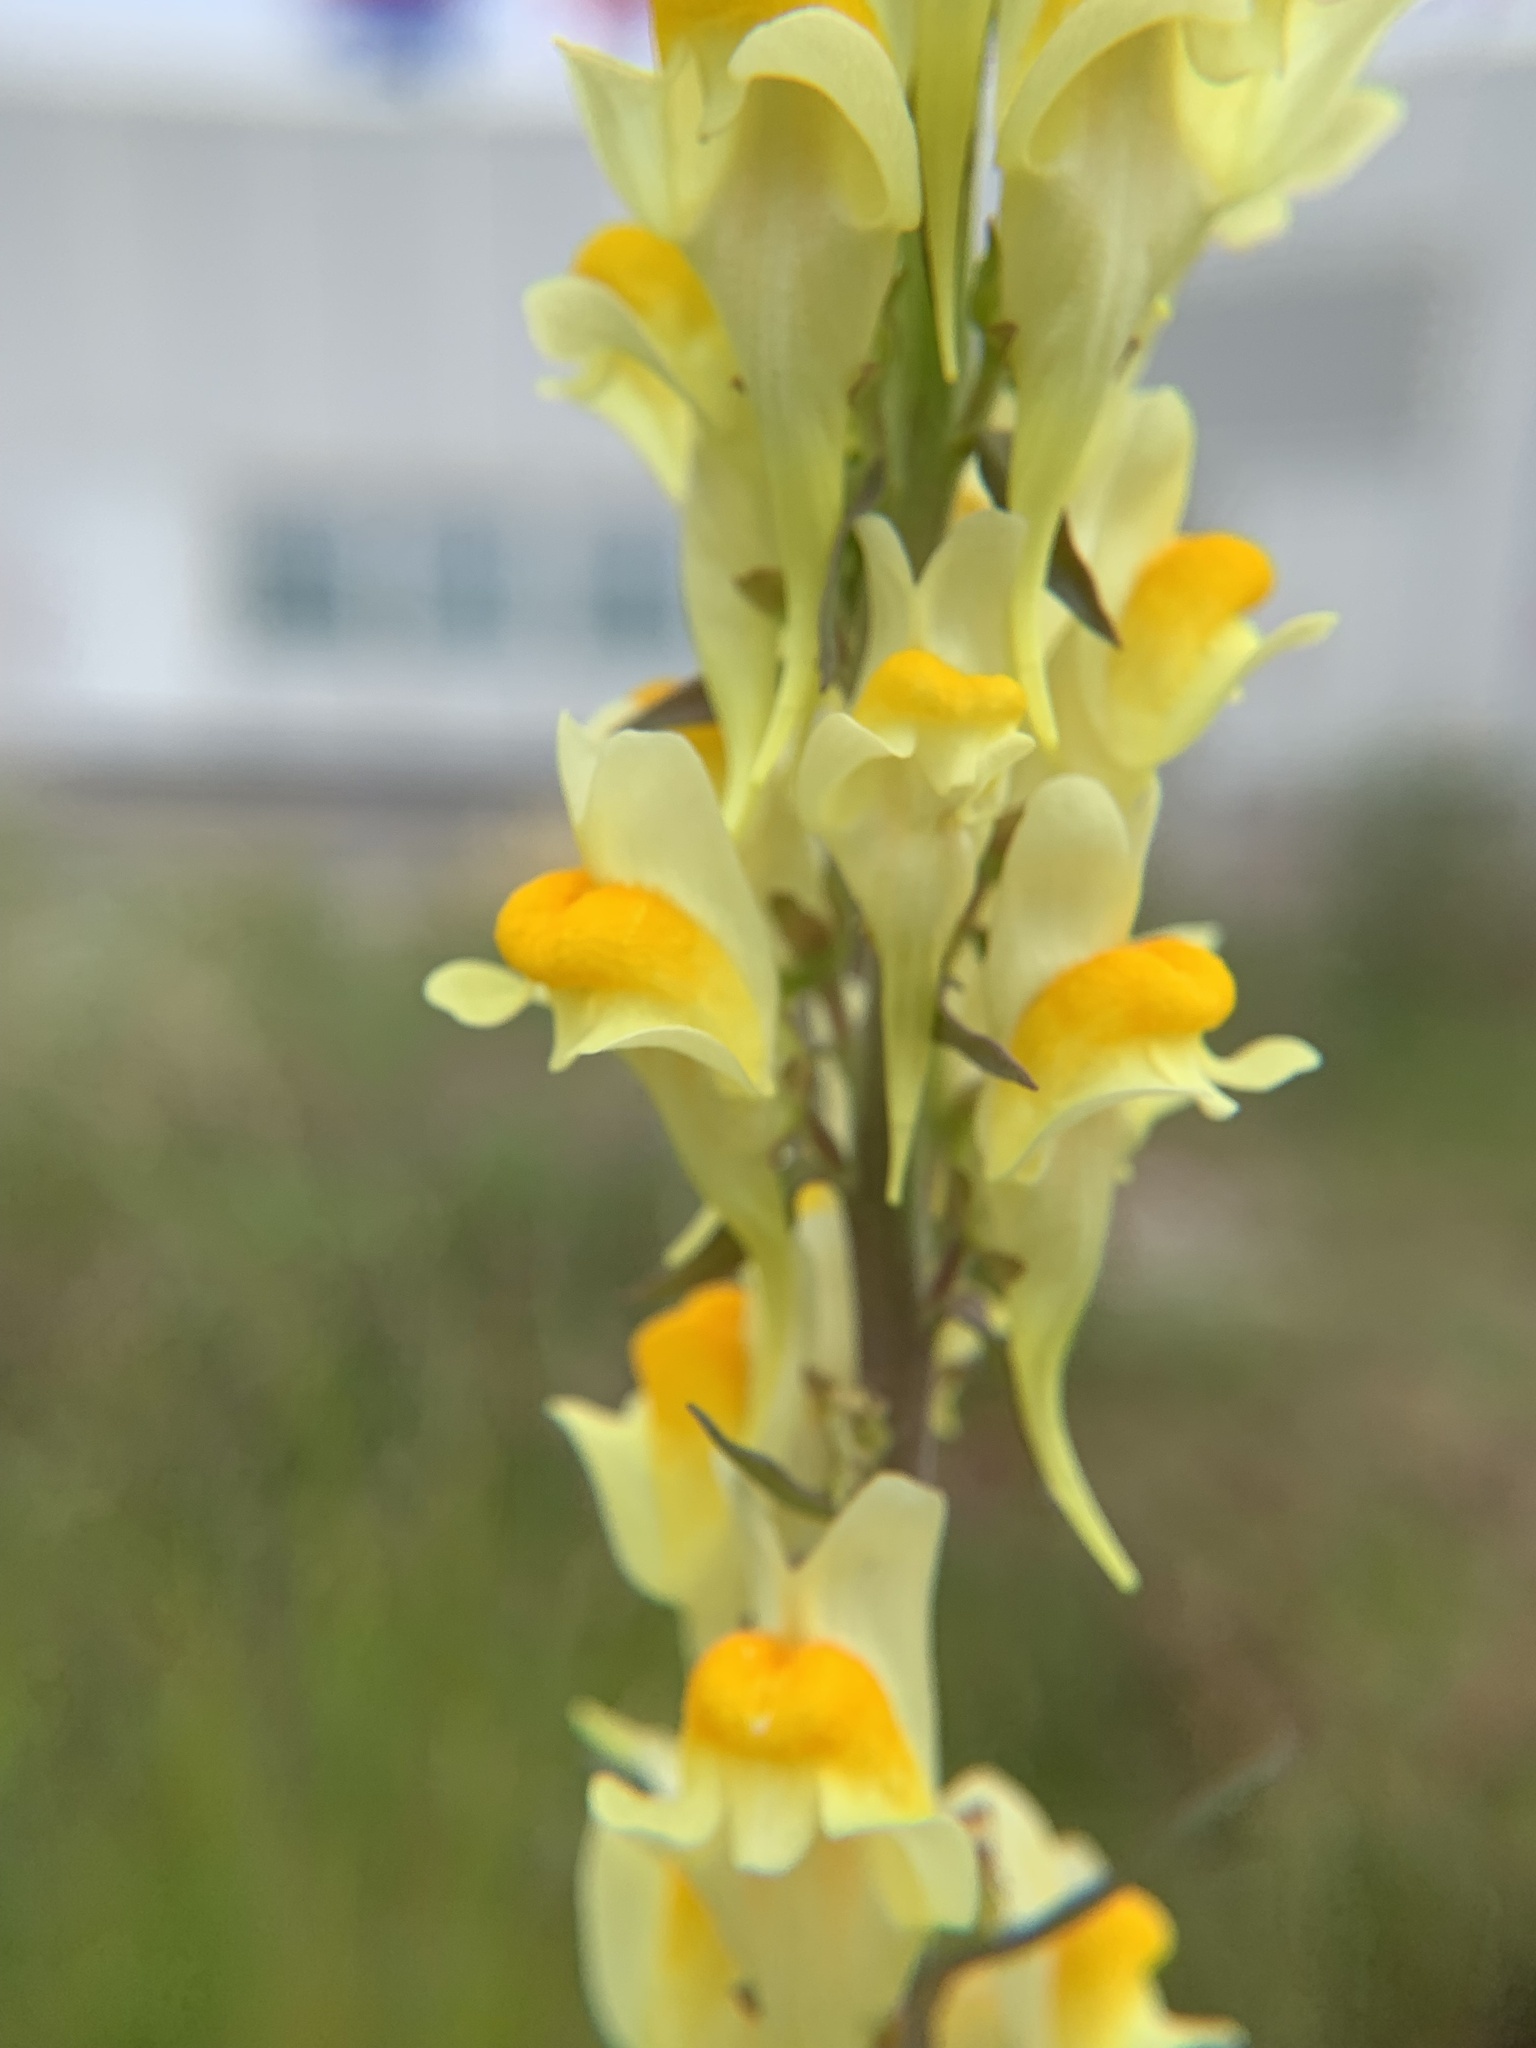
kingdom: Plantae
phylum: Tracheophyta
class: Magnoliopsida
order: Lamiales
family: Plantaginaceae
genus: Linaria
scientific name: Linaria vulgaris
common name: Butter and eggs
